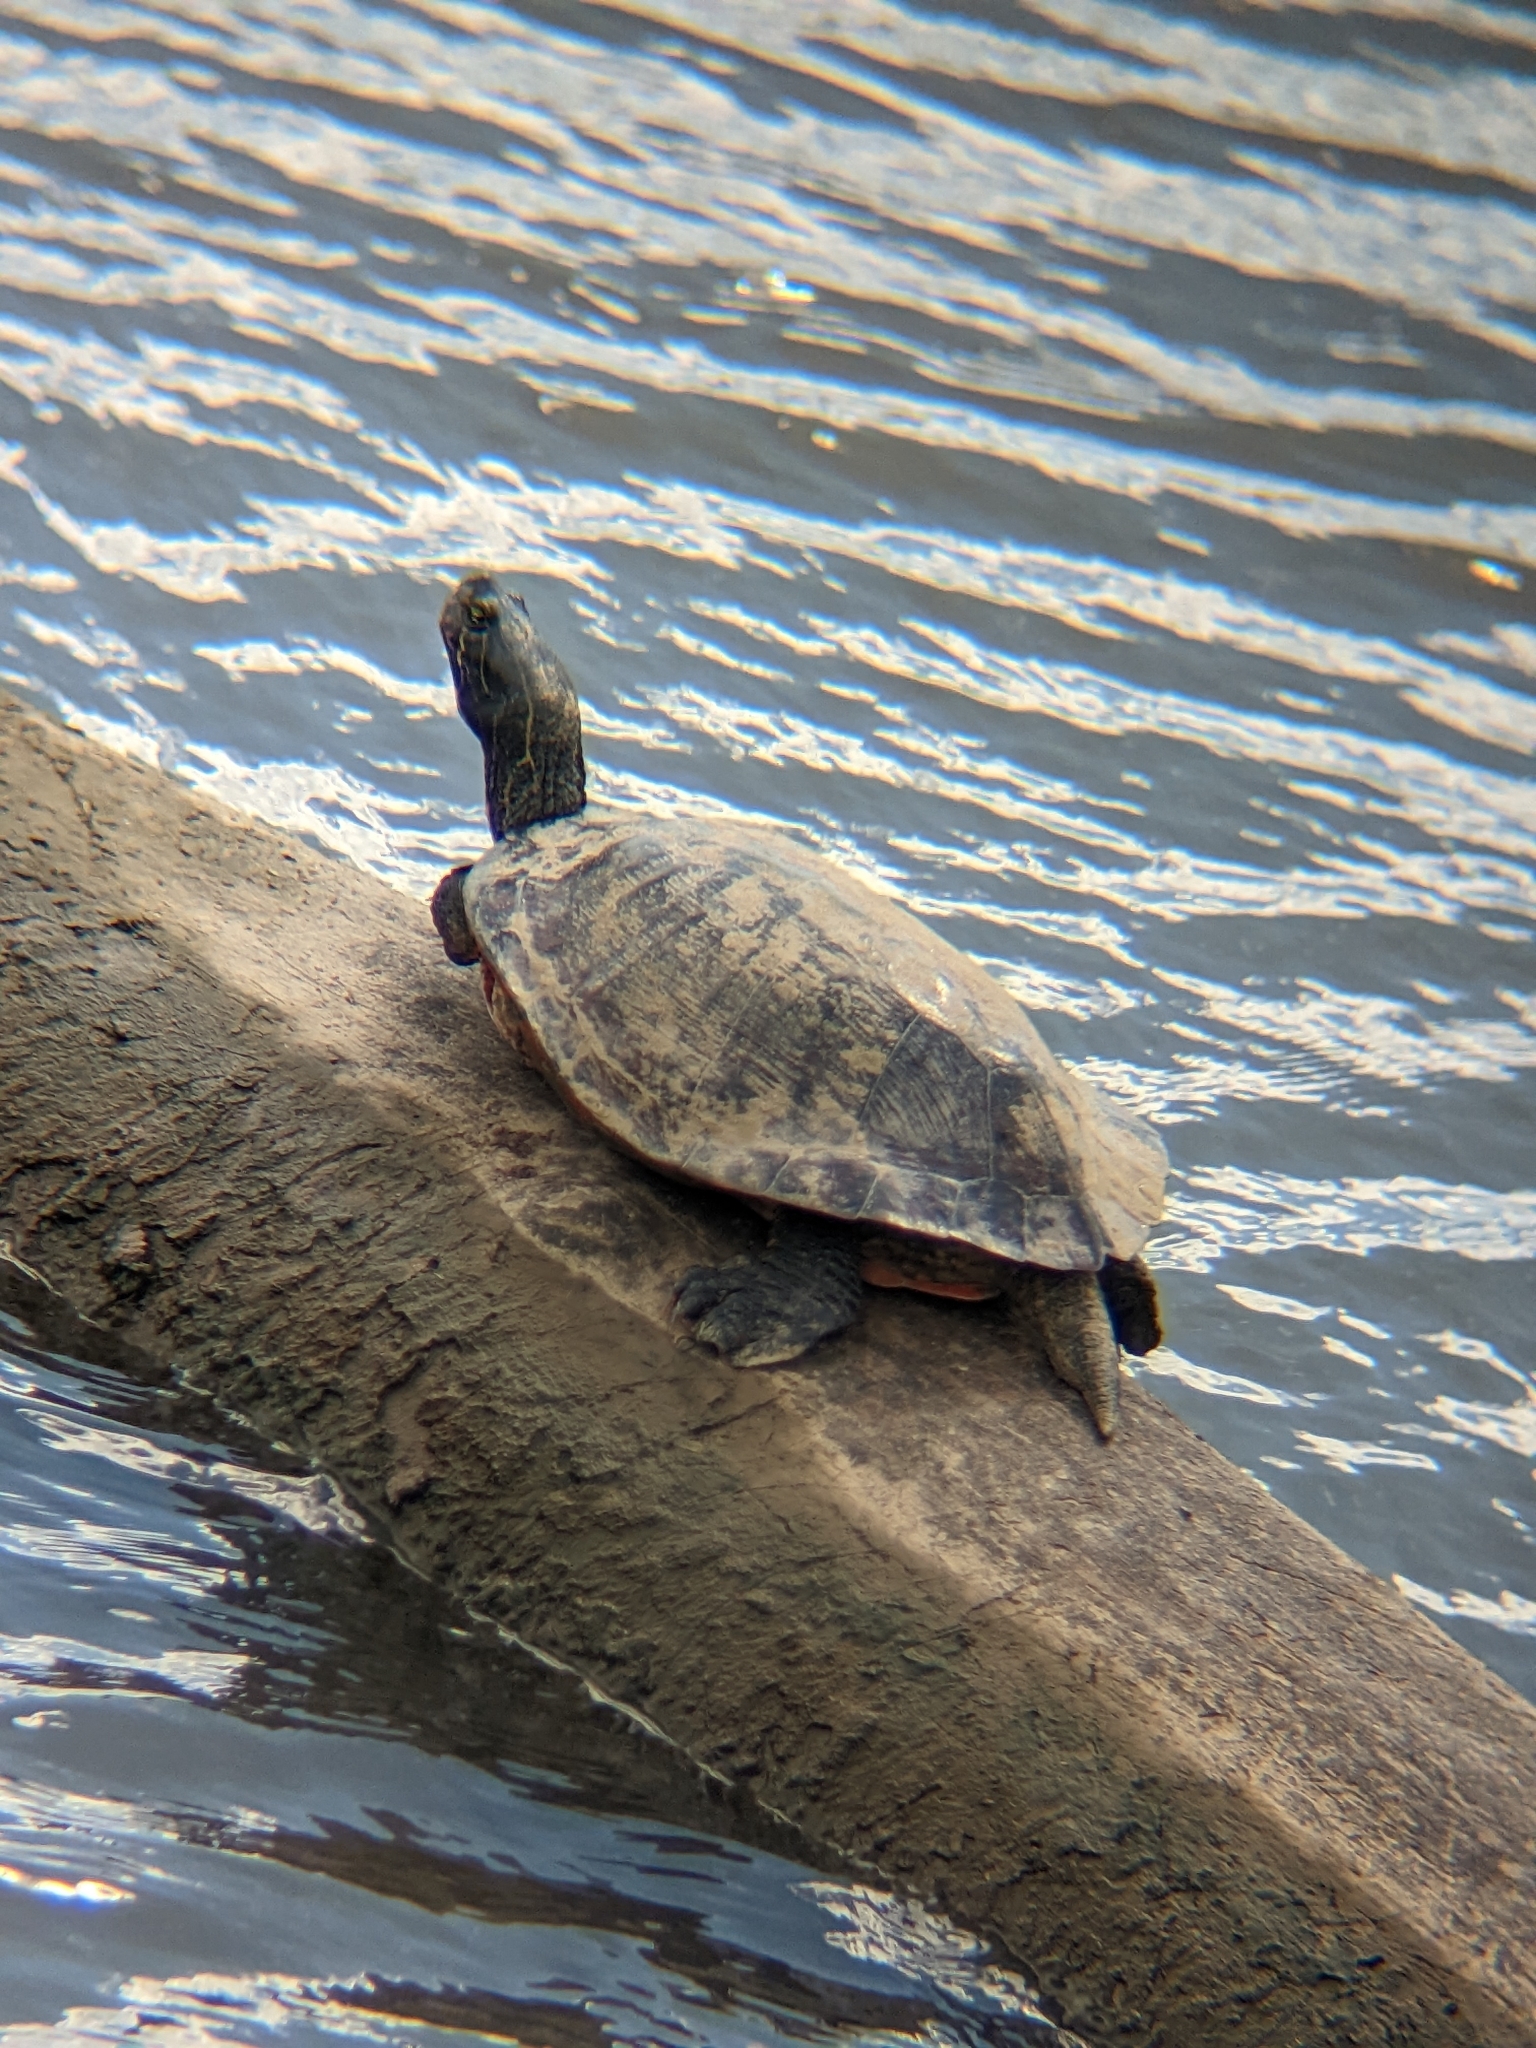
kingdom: Animalia
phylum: Chordata
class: Testudines
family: Emydidae
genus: Pseudemys
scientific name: Pseudemys rubriventris
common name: American red-bellied turtle
